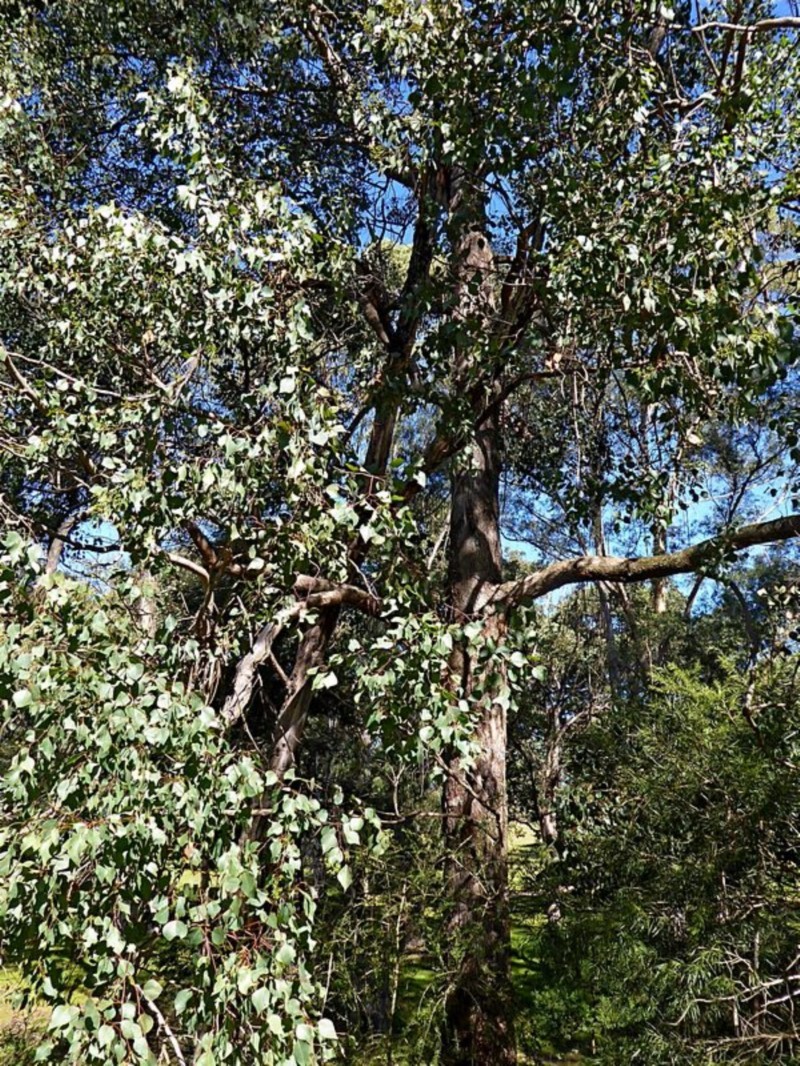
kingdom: Plantae
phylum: Tracheophyta
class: Magnoliopsida
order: Myrtales
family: Myrtaceae
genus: Eucalyptus
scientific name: Eucalyptus baueriana
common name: Round-leaf-box
